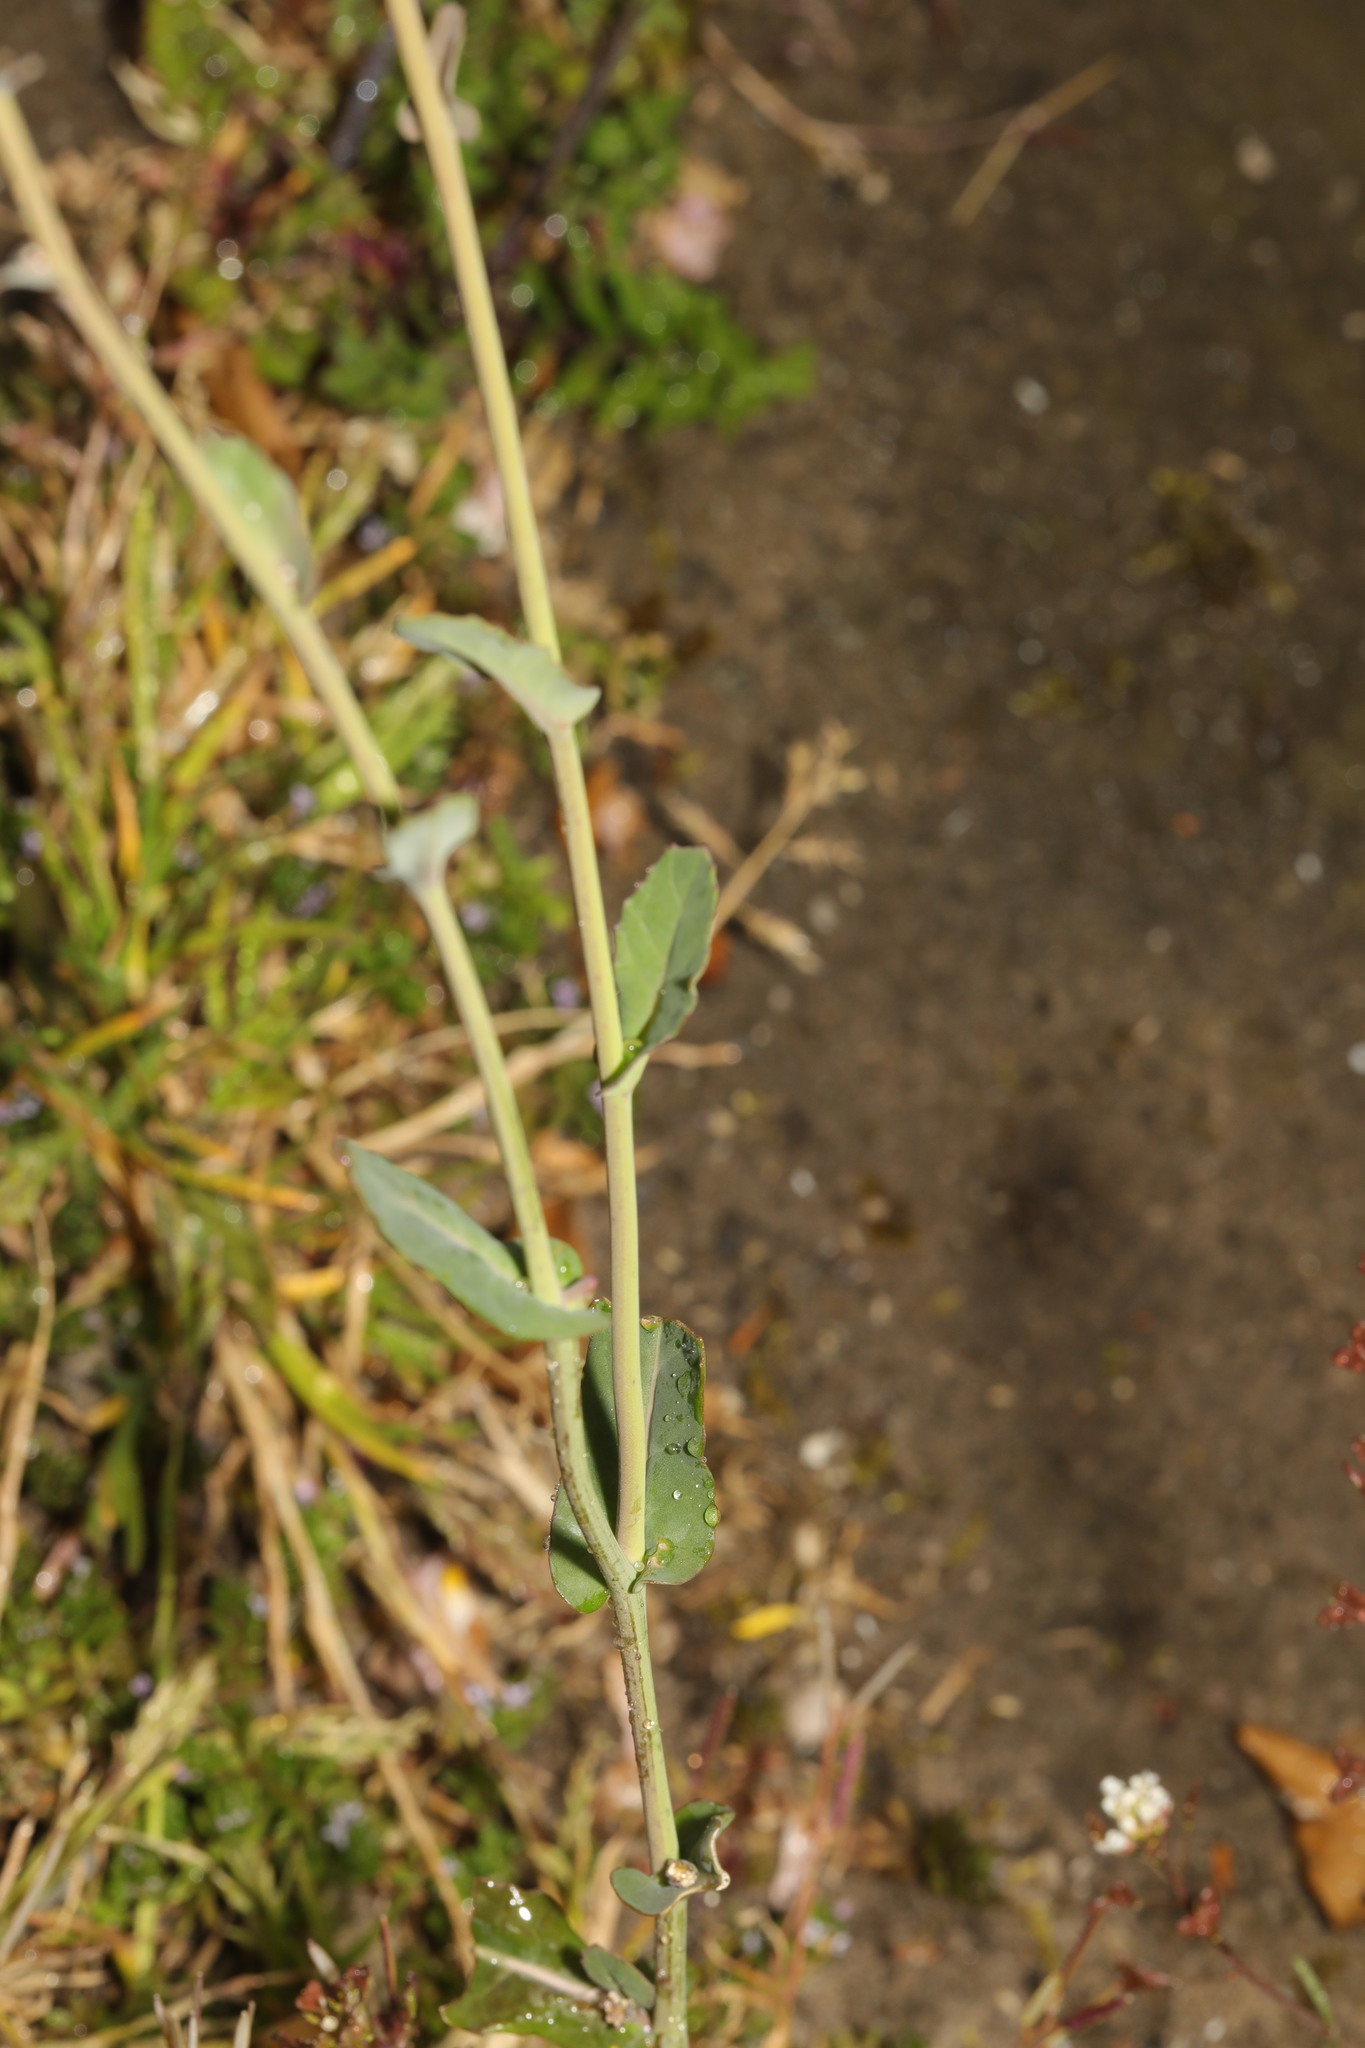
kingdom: Plantae
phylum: Tracheophyta
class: Magnoliopsida
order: Brassicales
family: Brassicaceae
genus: Brassica
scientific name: Brassica napus
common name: Rape
